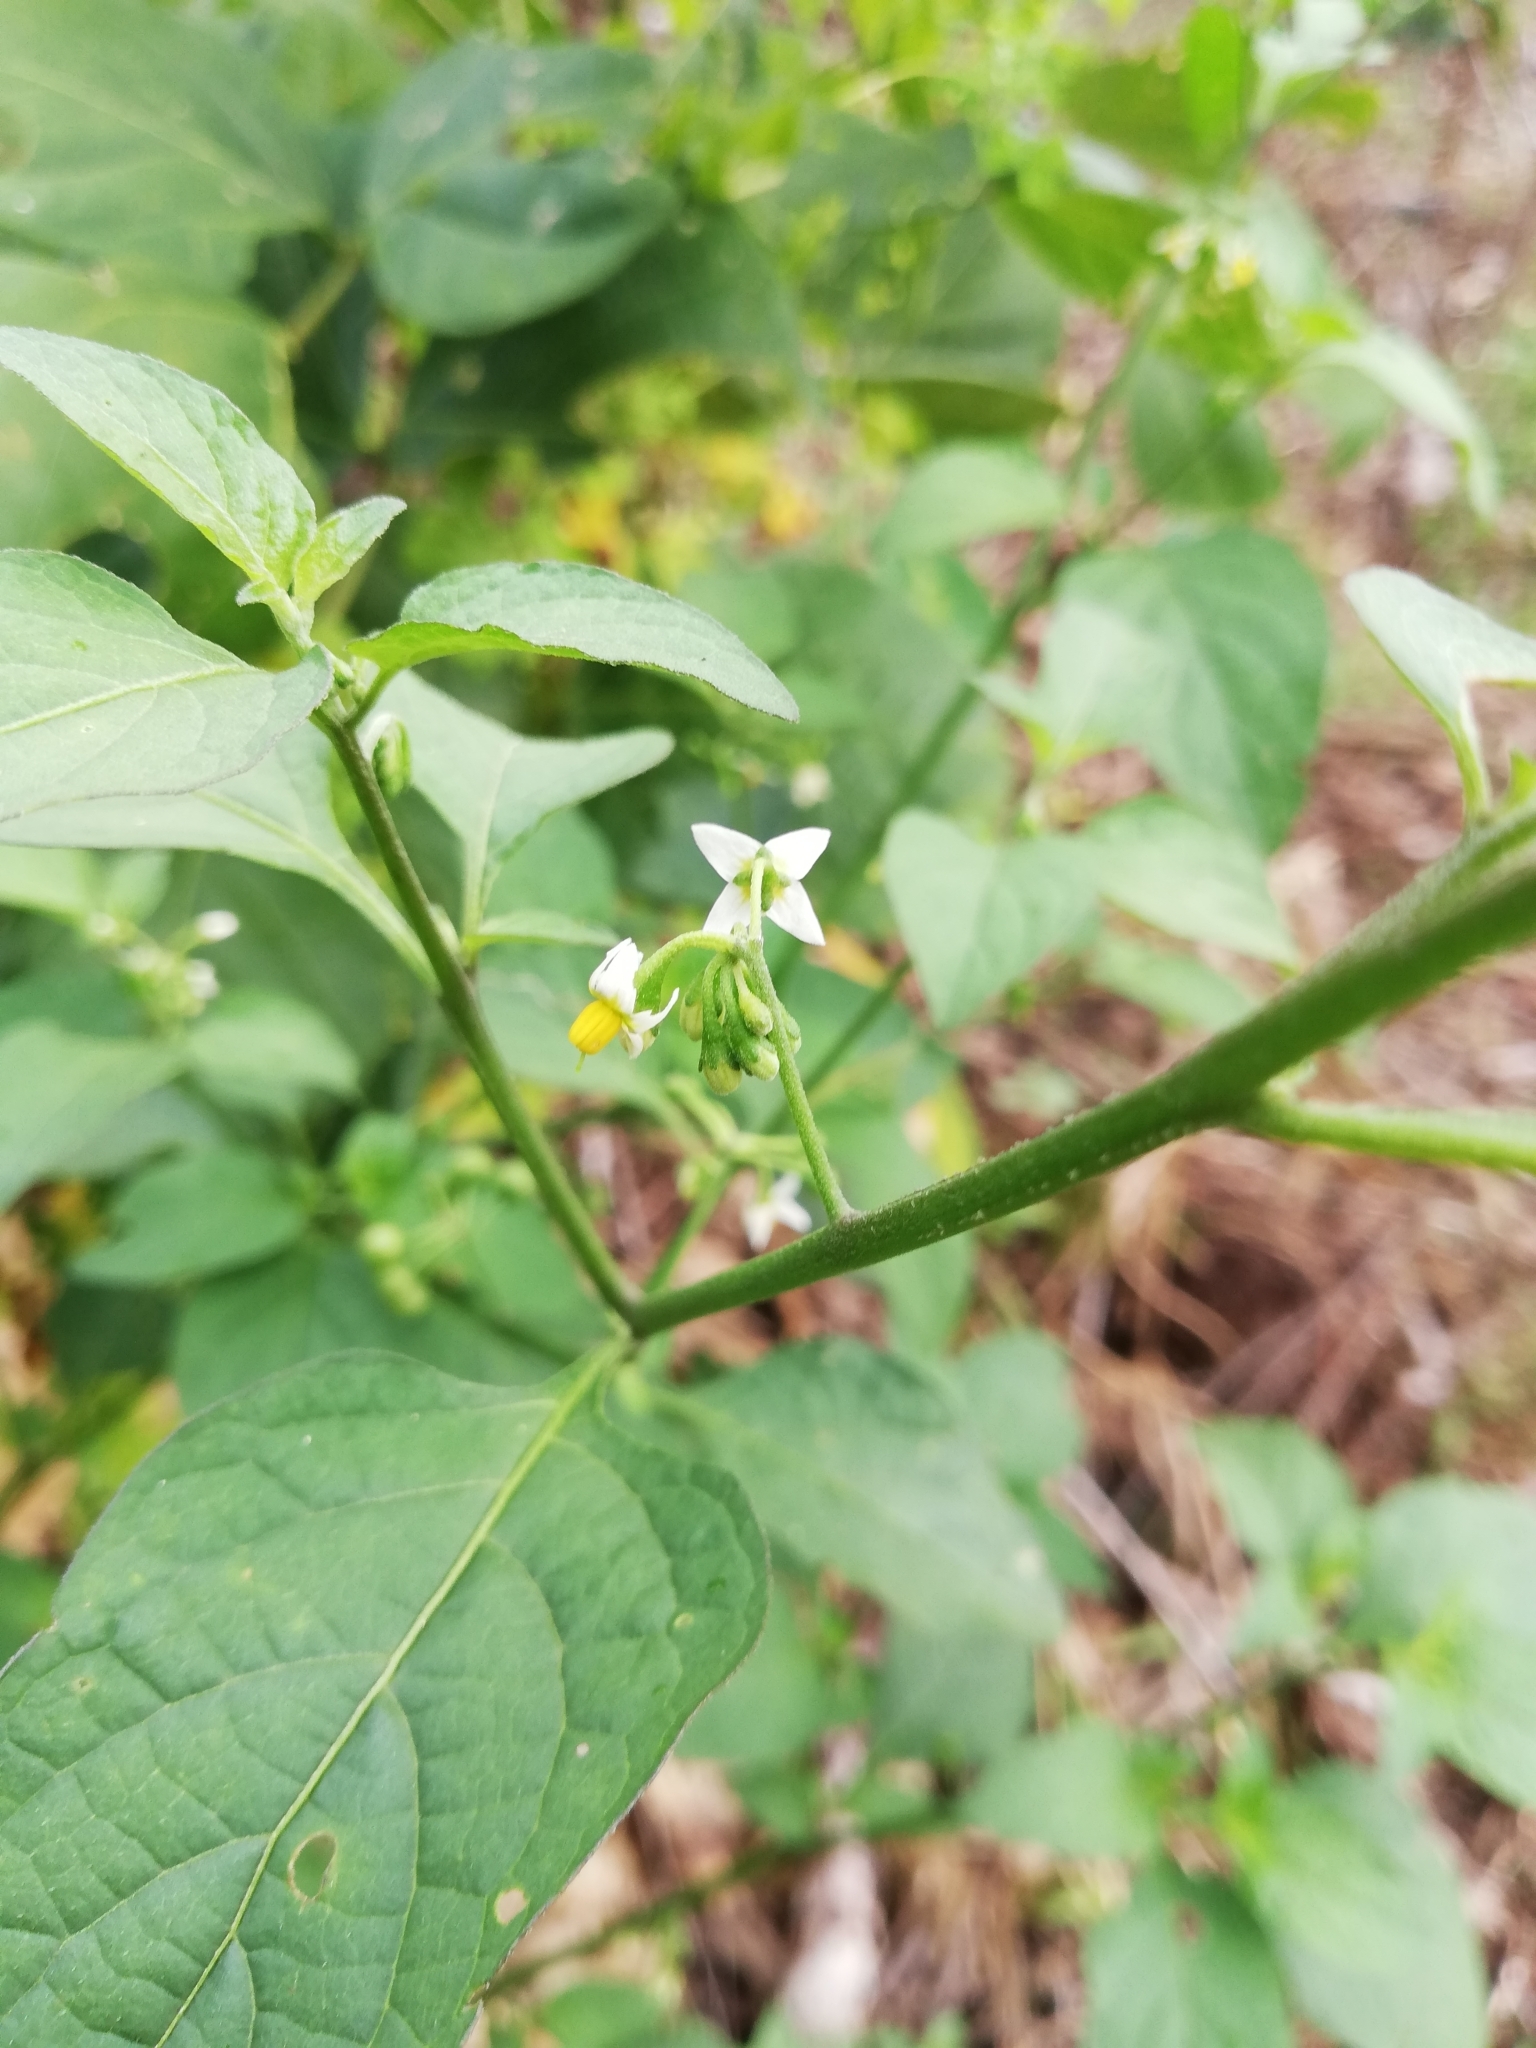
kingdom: Plantae
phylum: Tracheophyta
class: Magnoliopsida
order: Solanales
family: Solanaceae
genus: Solanum
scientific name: Solanum americanum
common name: American black nightshade
